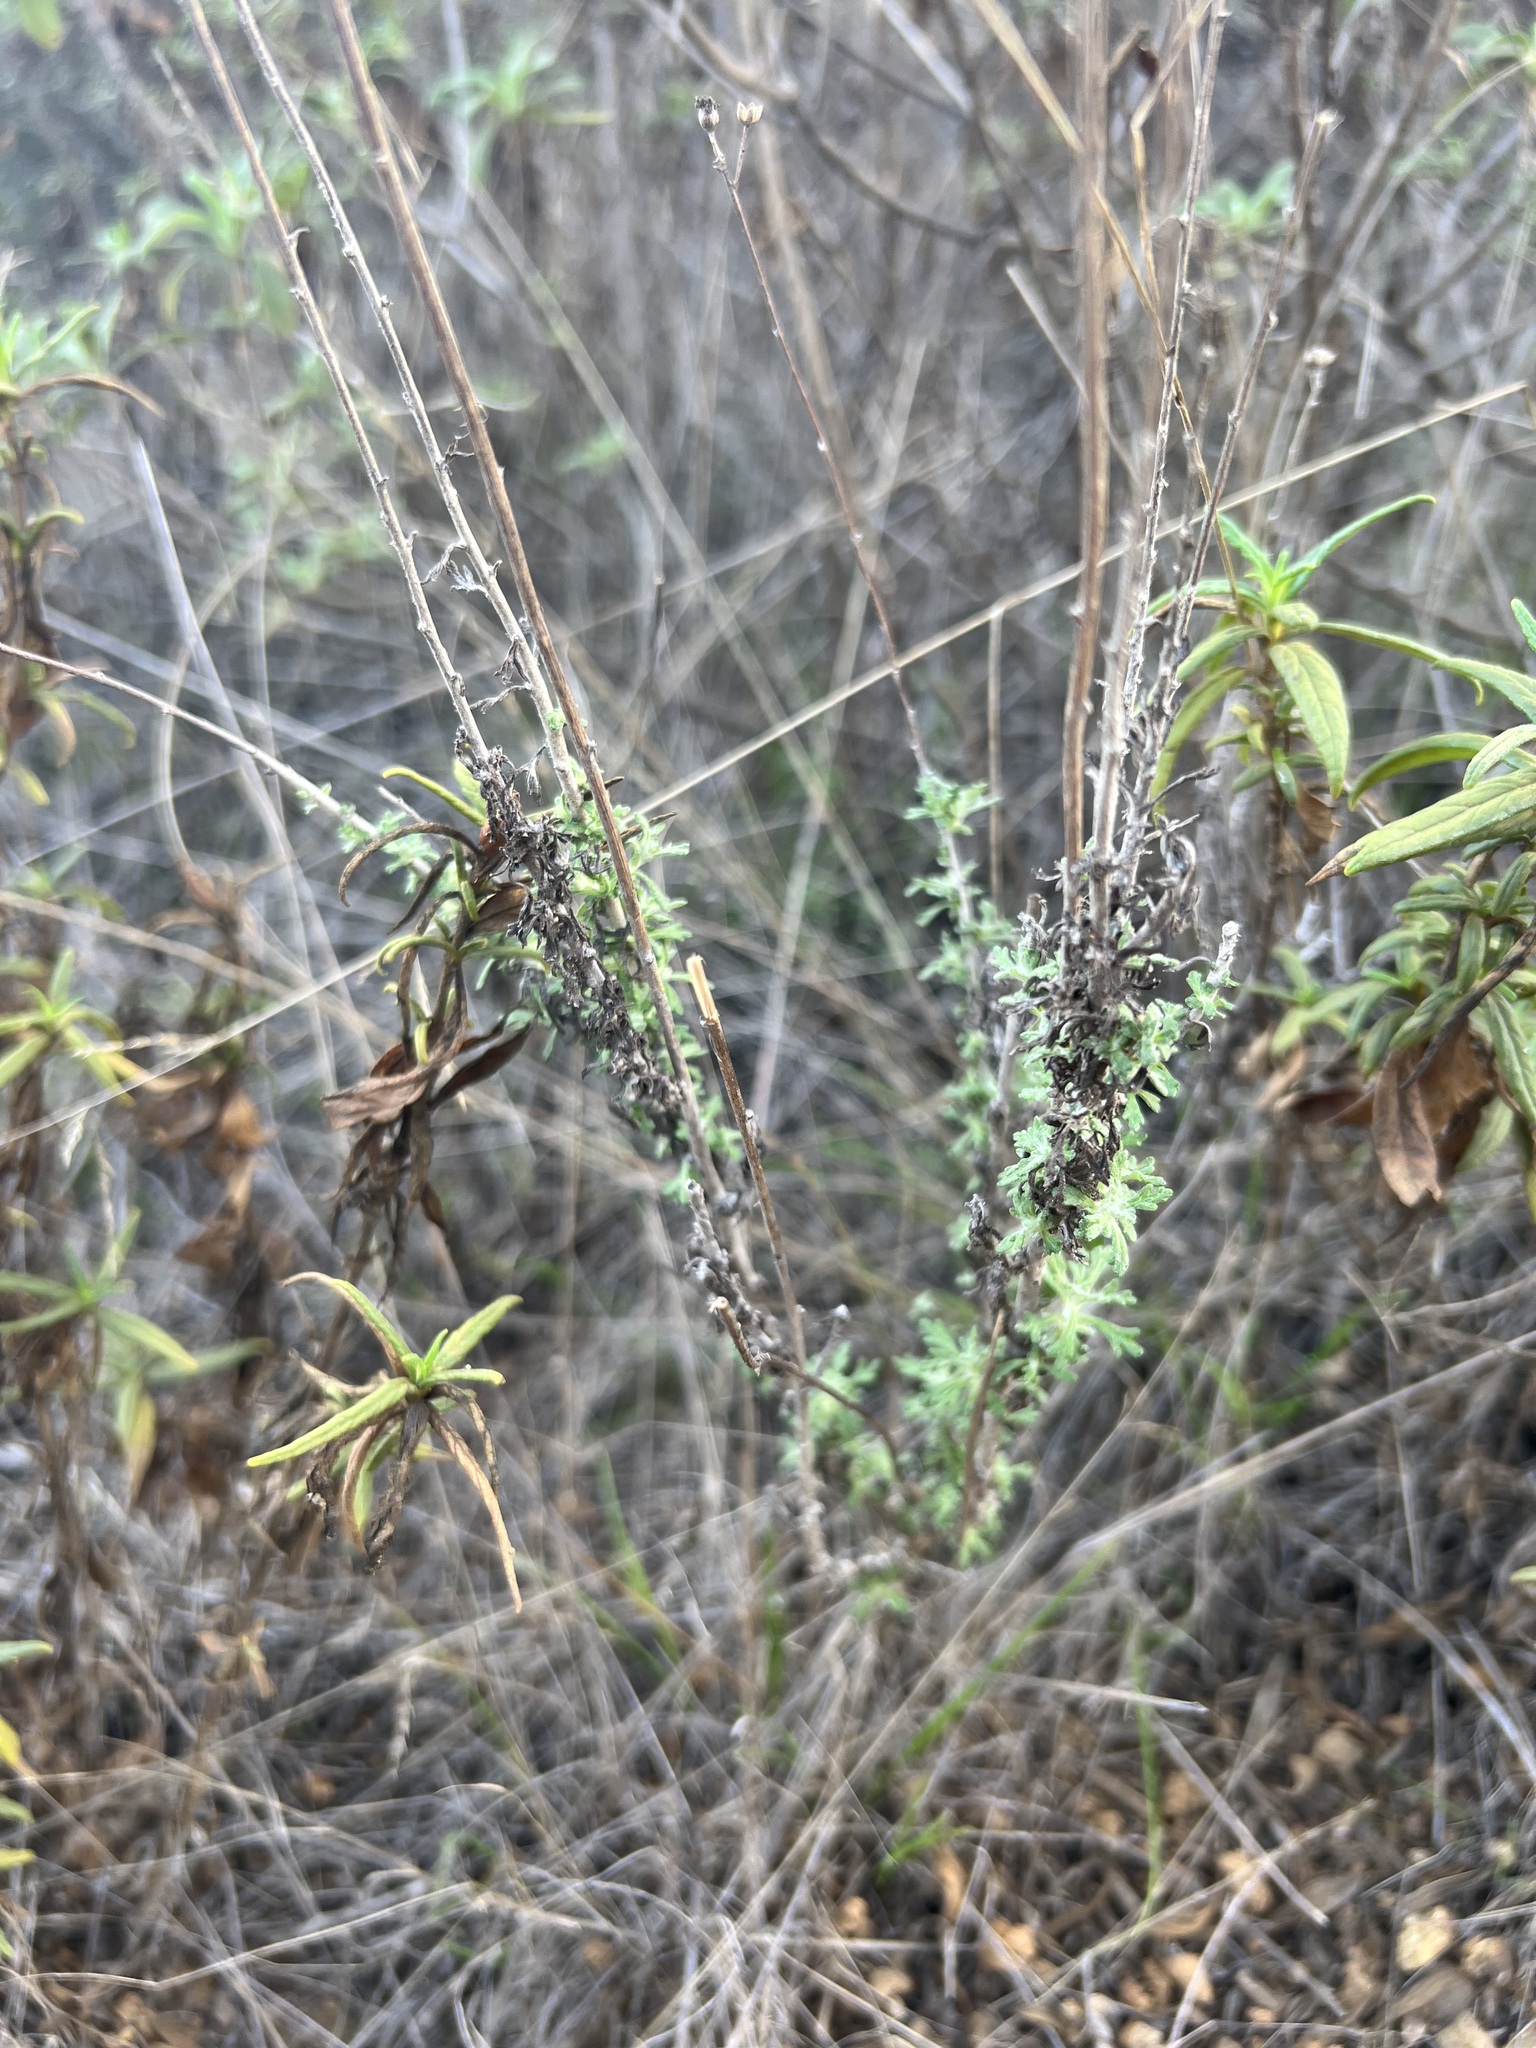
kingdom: Plantae
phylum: Tracheophyta
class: Magnoliopsida
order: Asterales
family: Asteraceae
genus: Eriophyllum
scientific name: Eriophyllum confertiflorum
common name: Golden-yarrow
